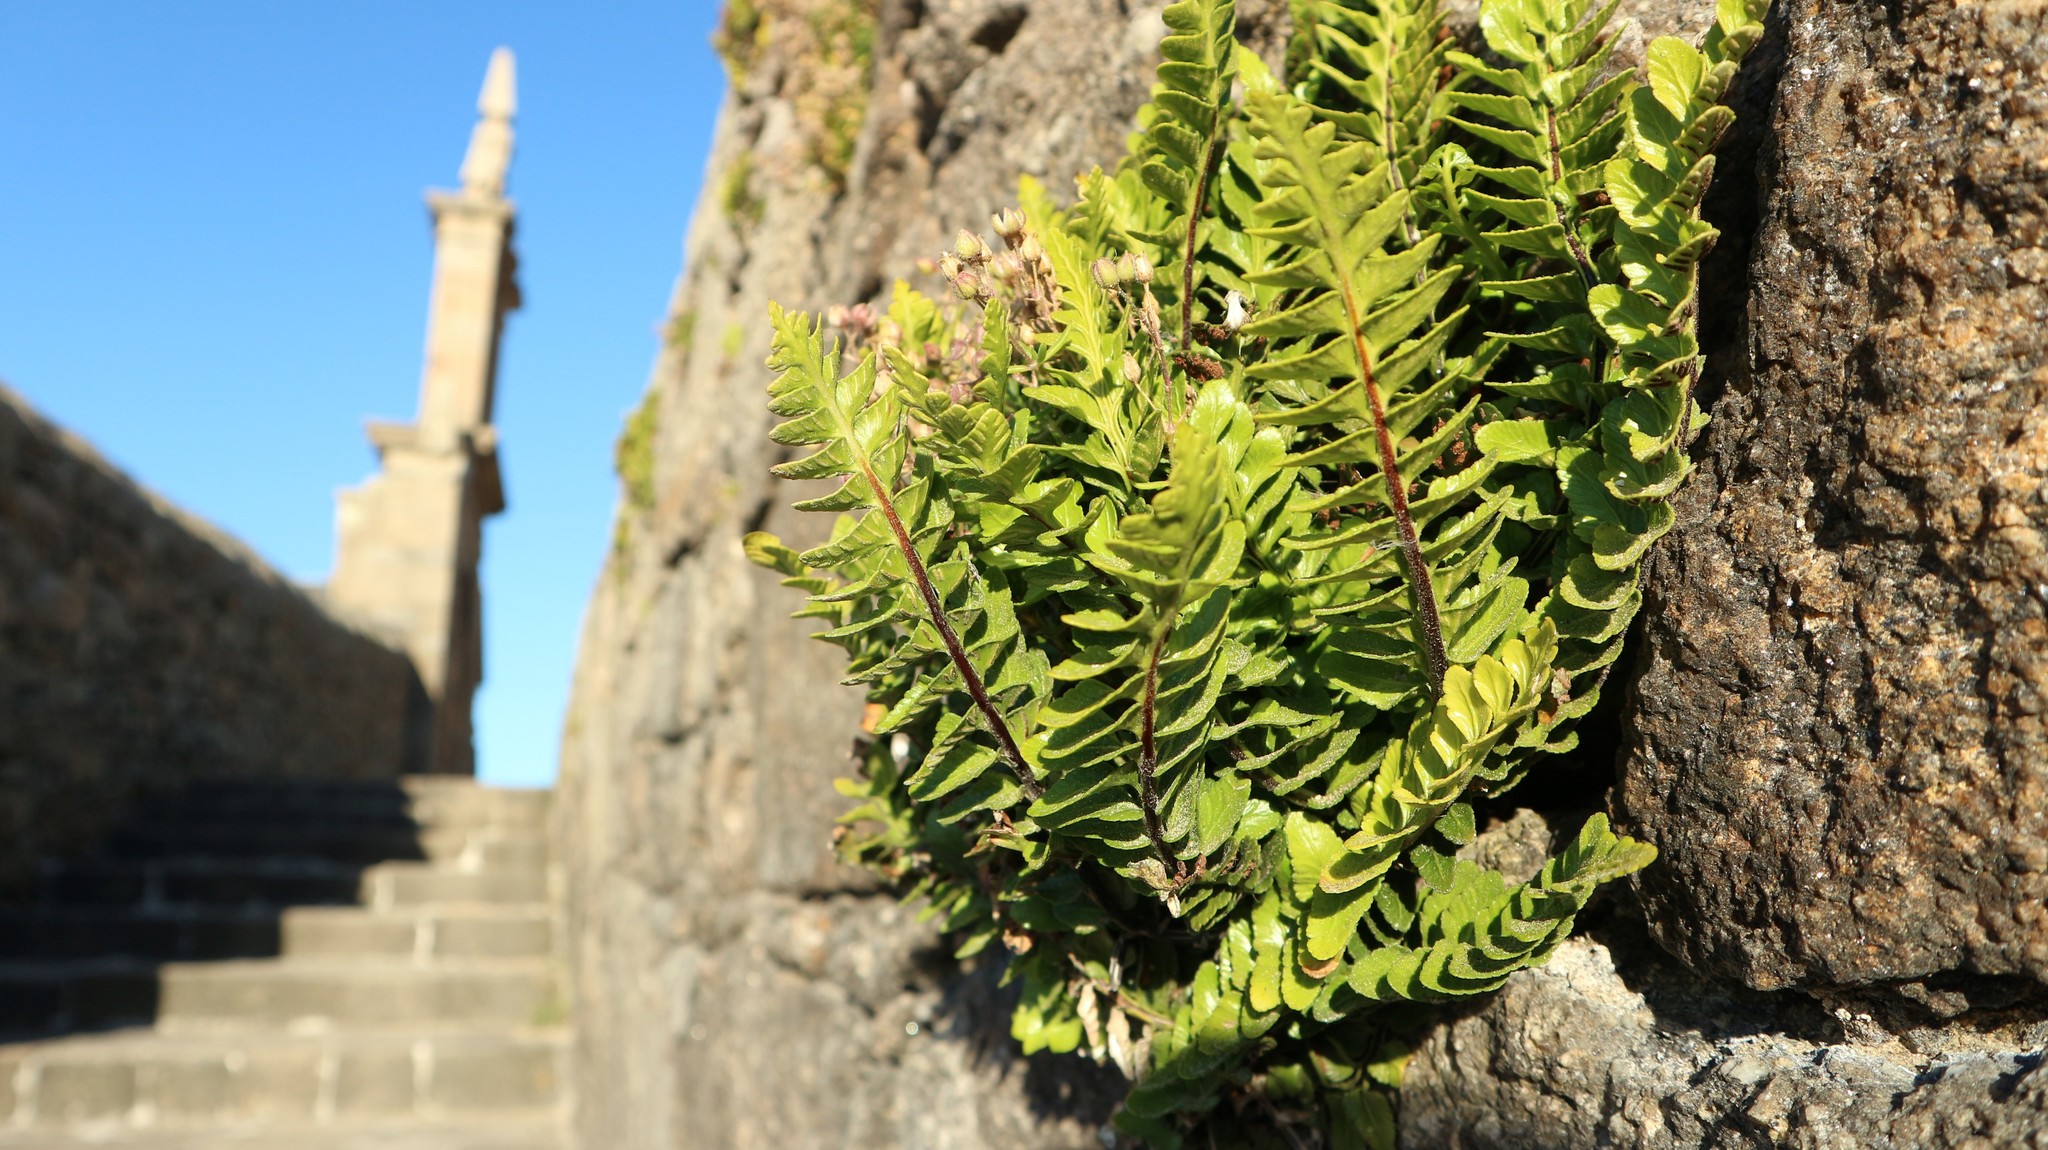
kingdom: Plantae
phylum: Tracheophyta
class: Polypodiopsida
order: Polypodiales
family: Aspleniaceae
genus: Asplenium
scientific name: Asplenium marinum
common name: Sea spleenwort
